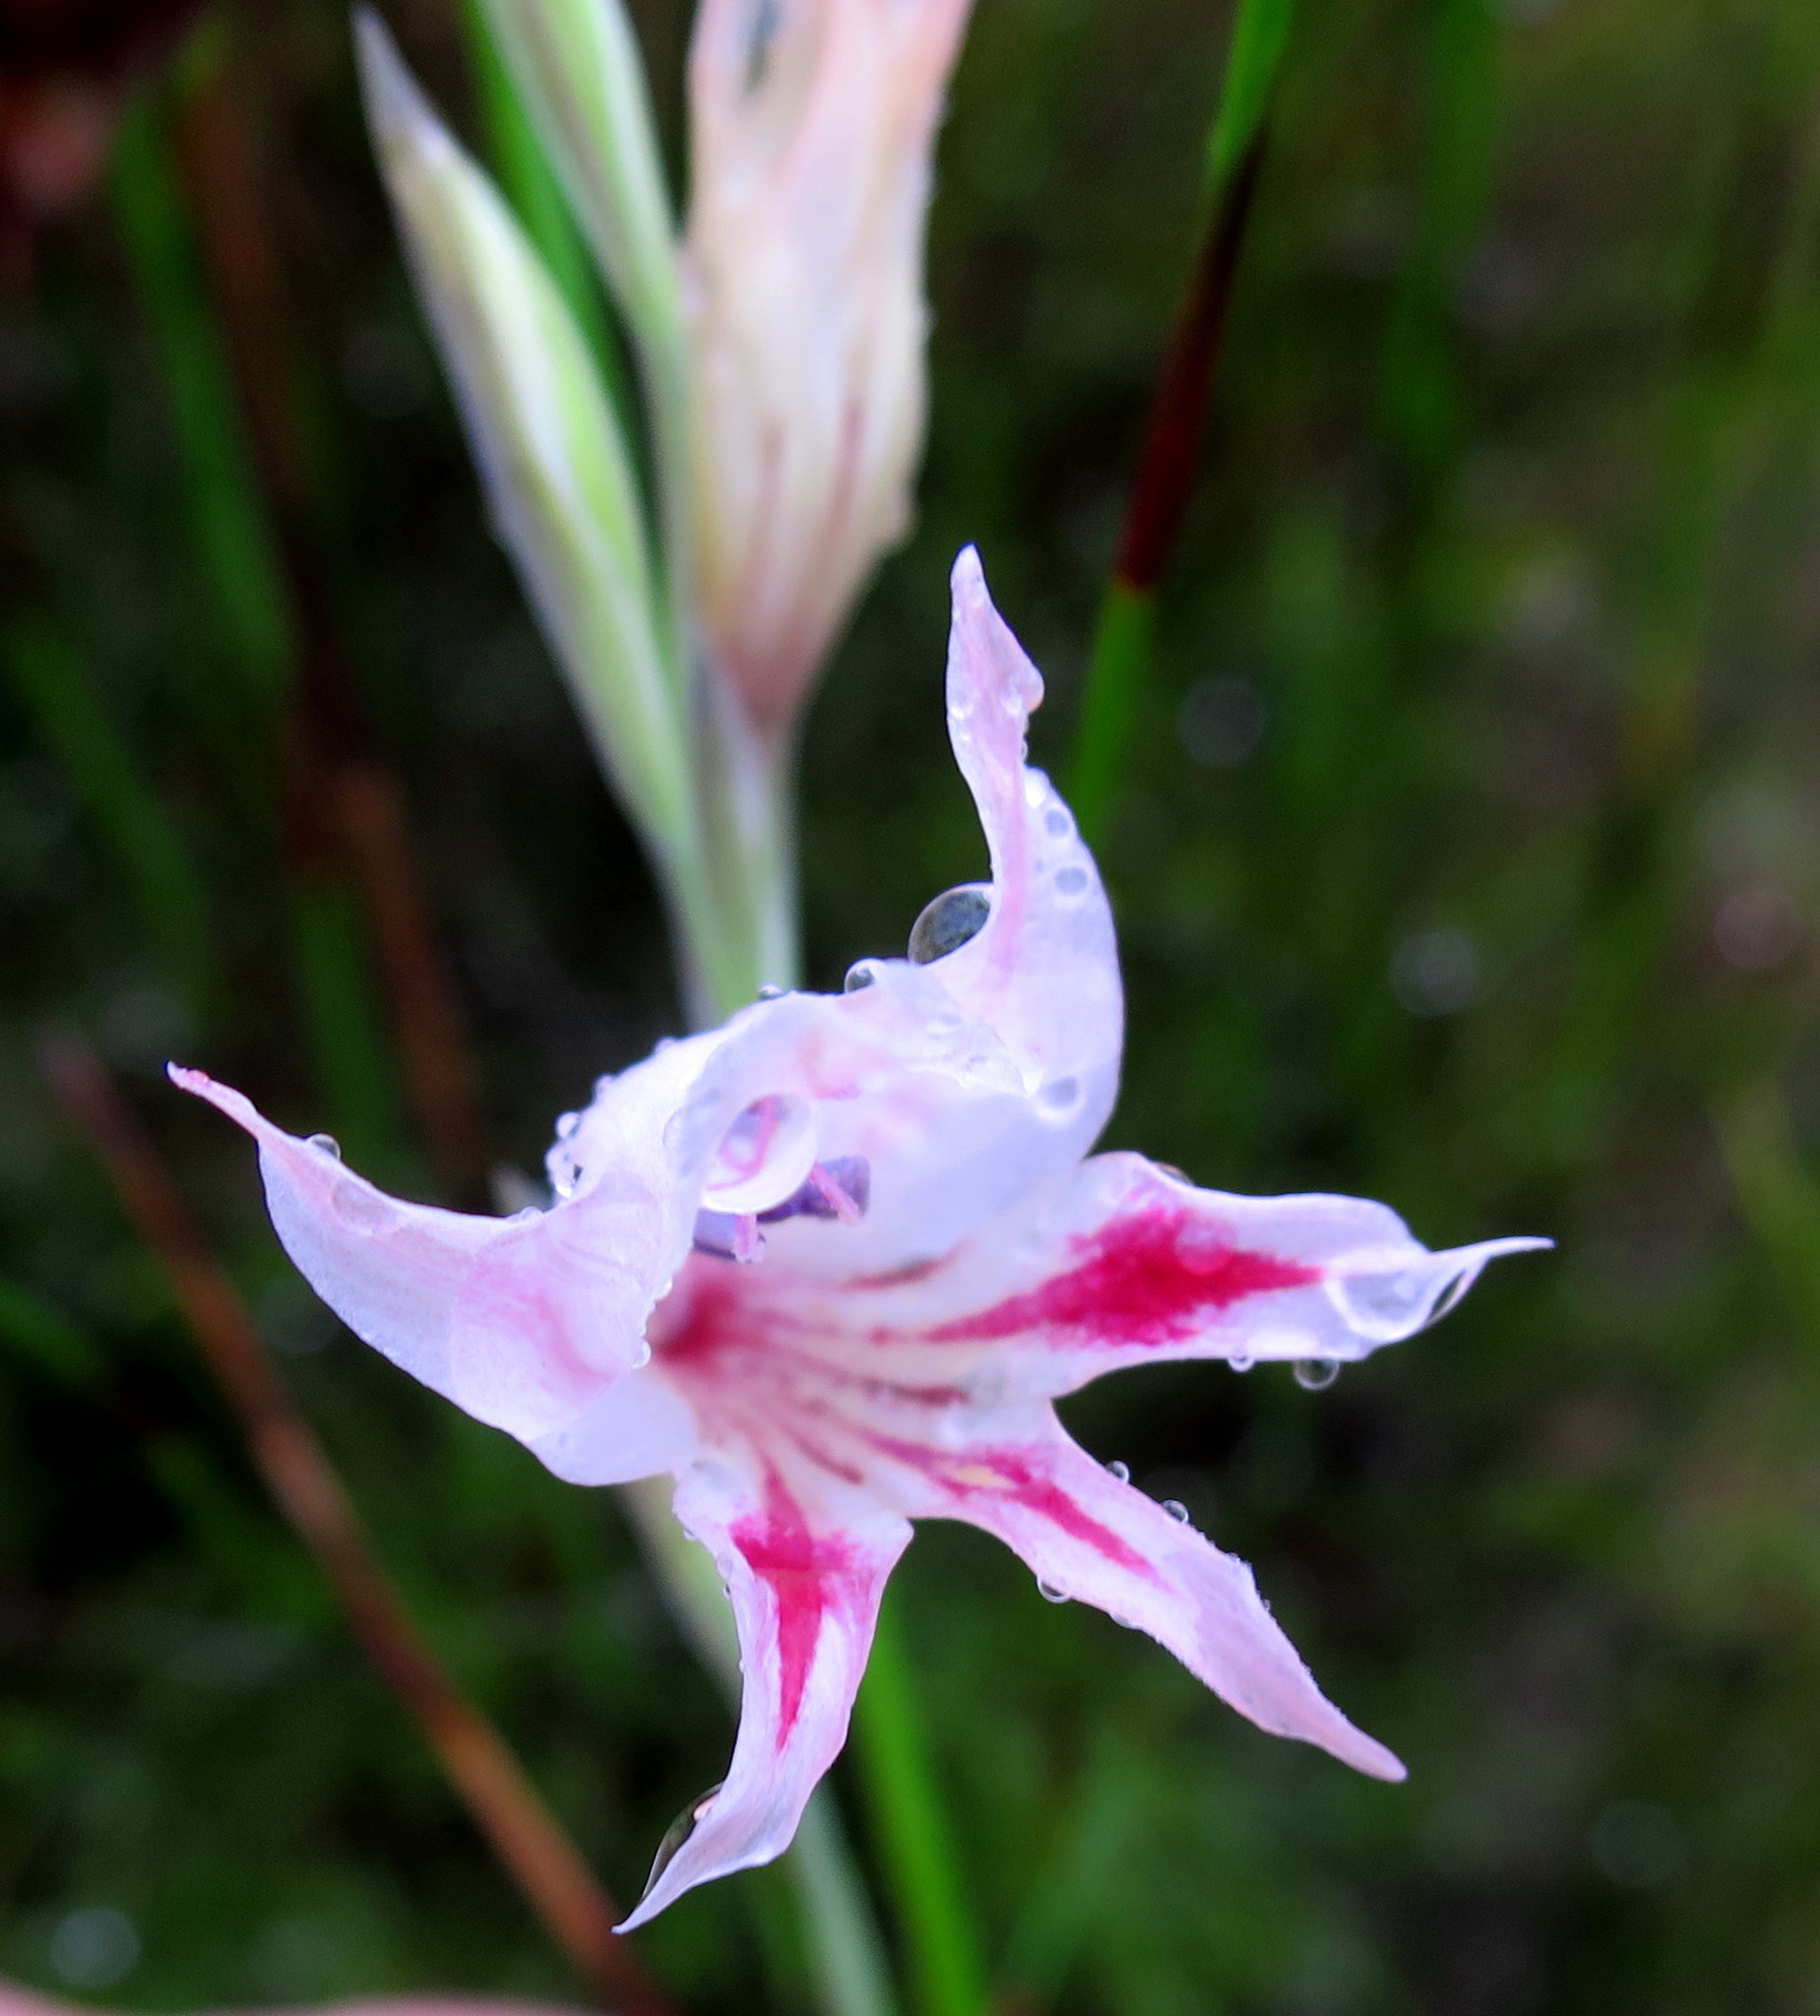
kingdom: Plantae
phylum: Tracheophyta
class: Liliopsida
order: Asparagales
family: Iridaceae
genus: Gladiolus
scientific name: Gladiolus nigromontanus
